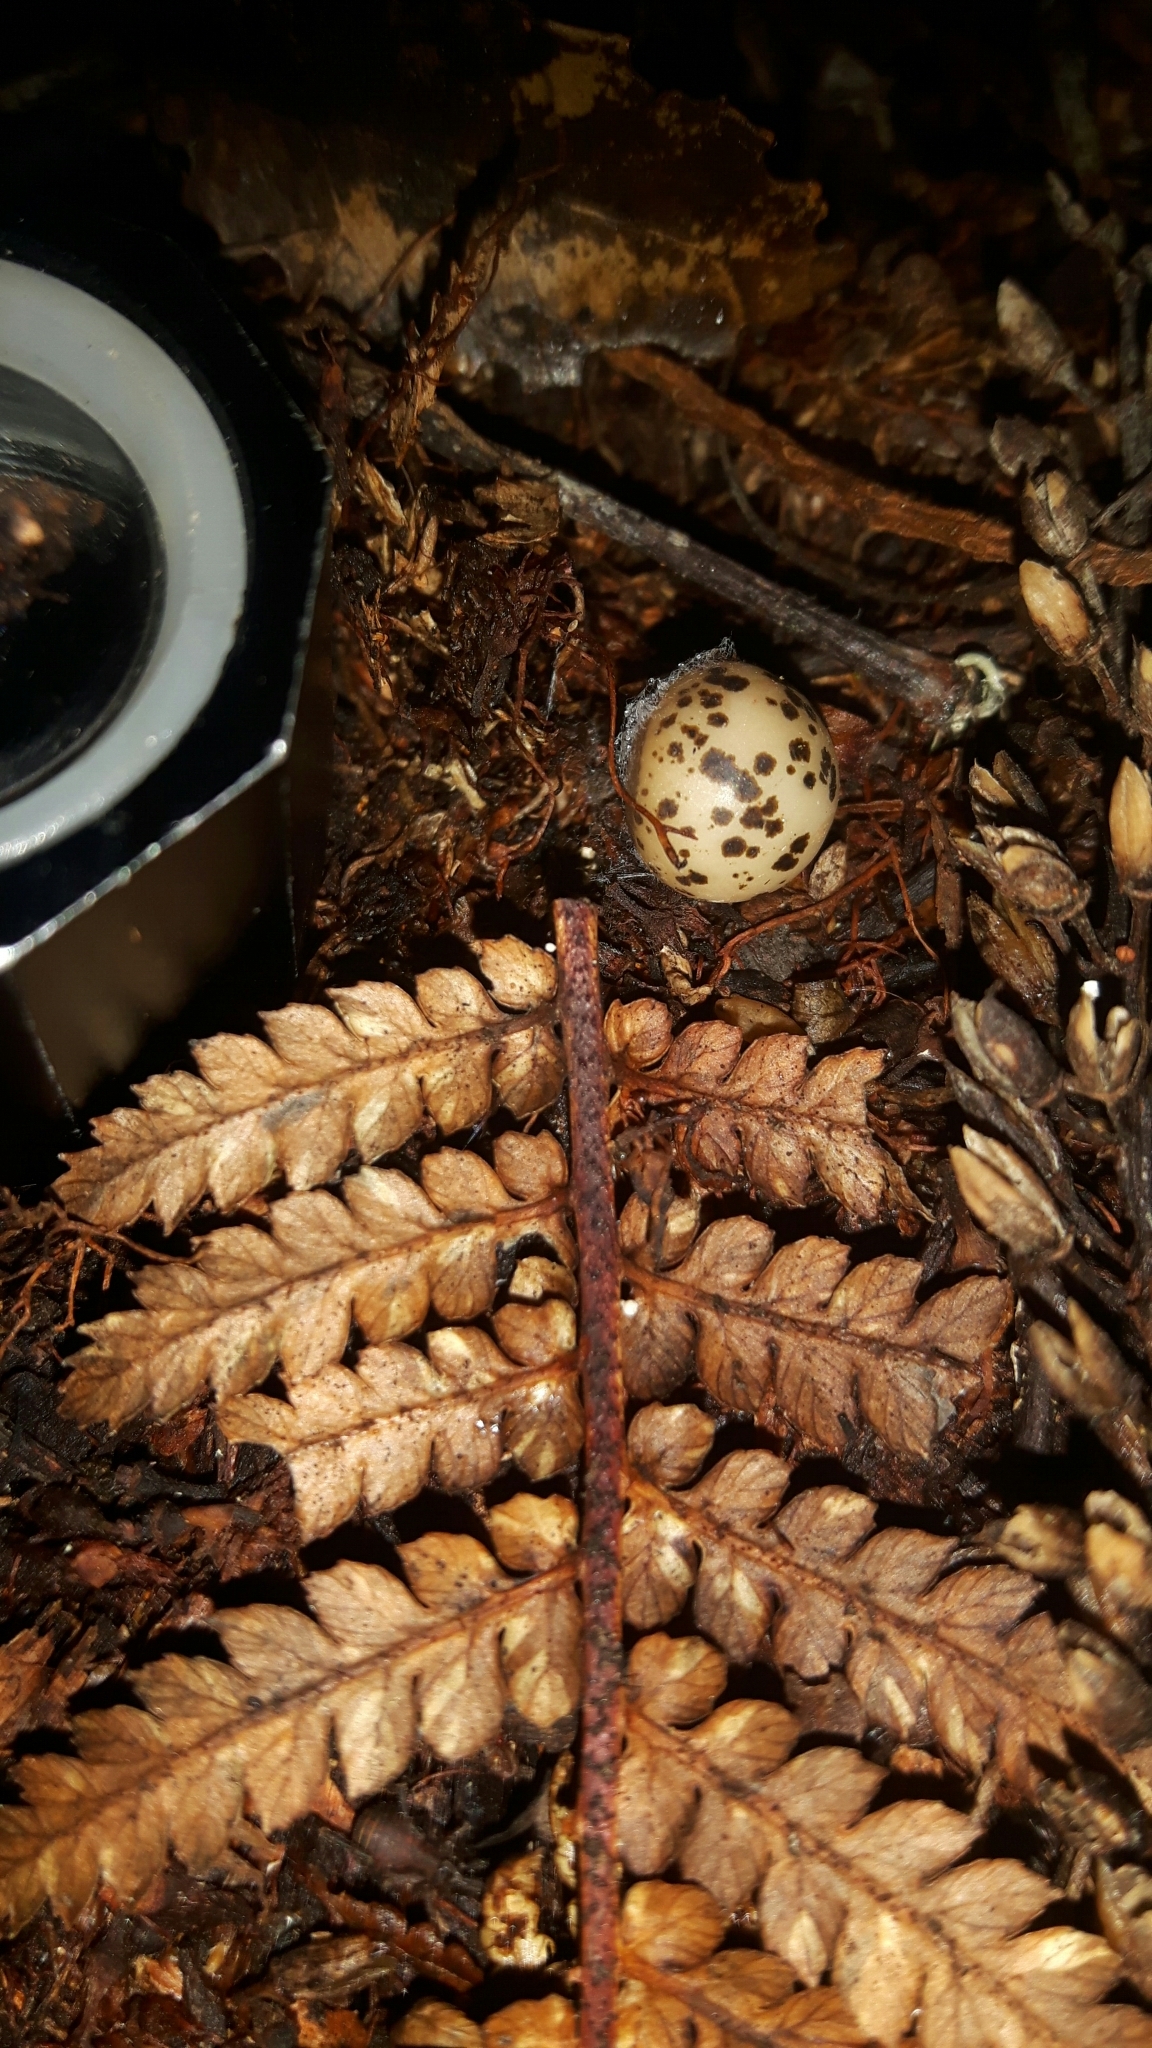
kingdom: Plantae
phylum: Tracheophyta
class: Liliopsida
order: Liliales
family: Ripogonaceae
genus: Ripogonum
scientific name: Ripogonum scandens
